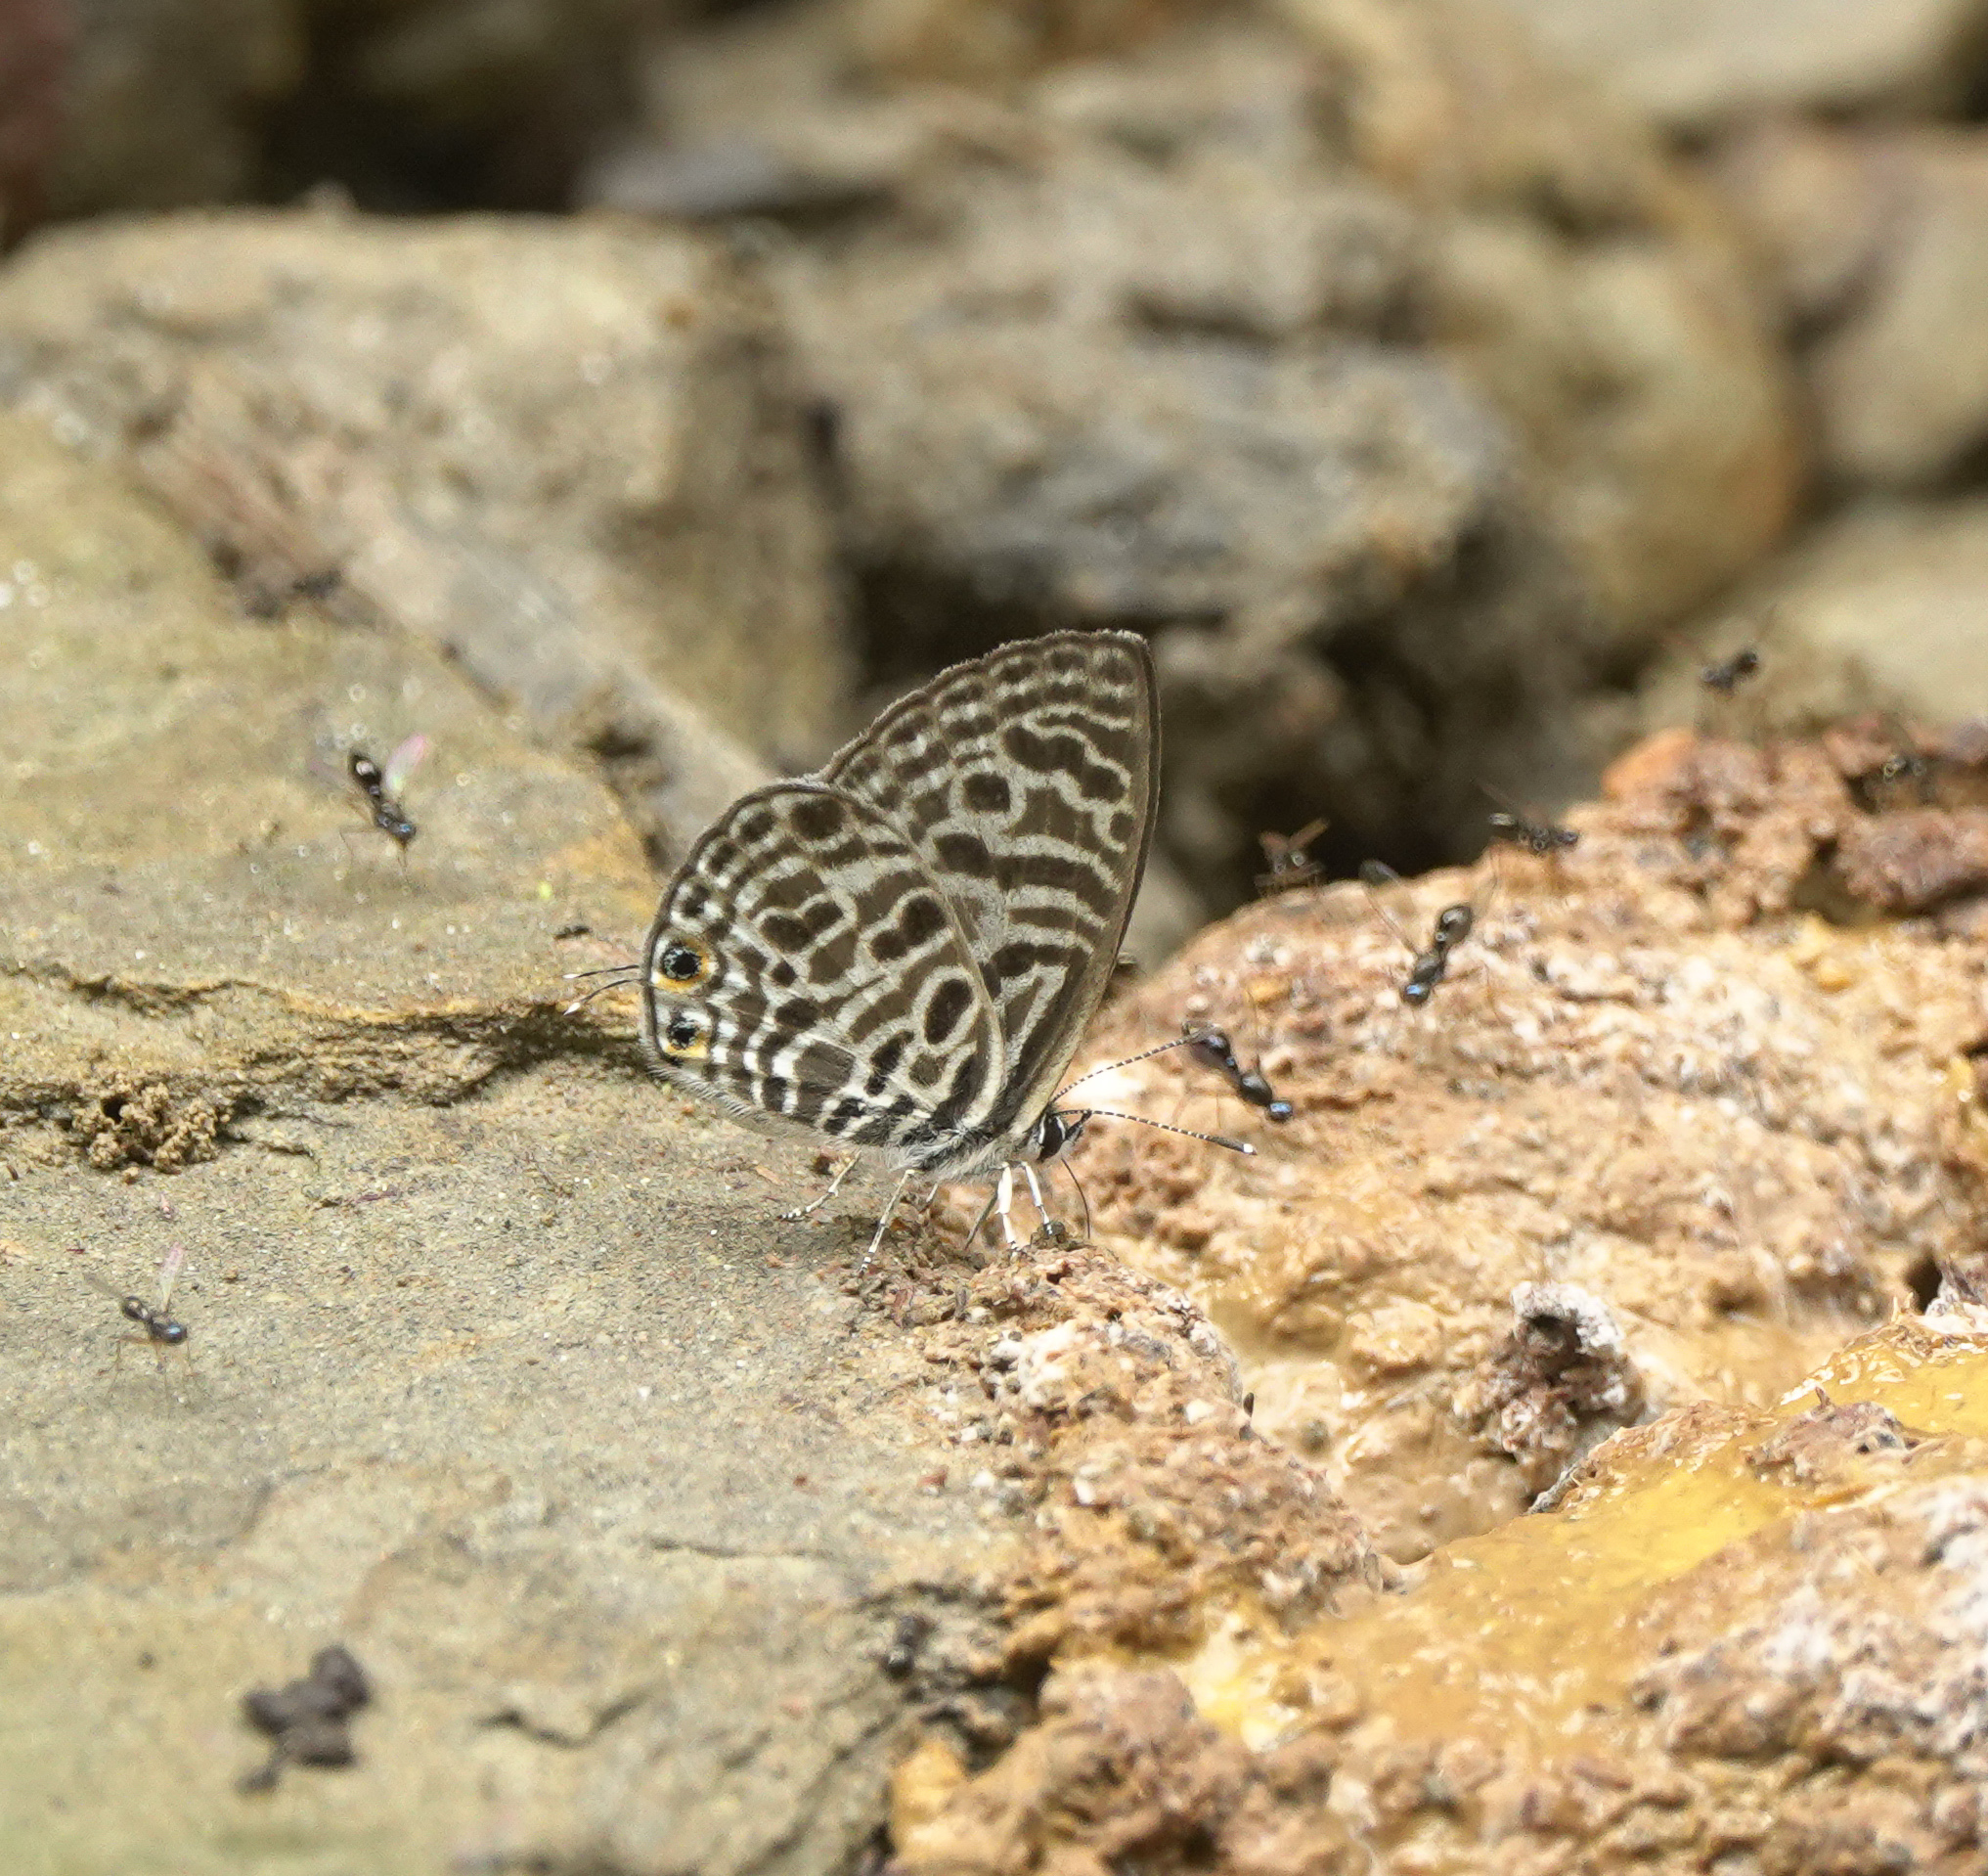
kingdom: Animalia
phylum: Arthropoda
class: Insecta
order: Lepidoptera
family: Lycaenidae
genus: Leptotes
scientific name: Leptotes plinius
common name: Zebra blue
